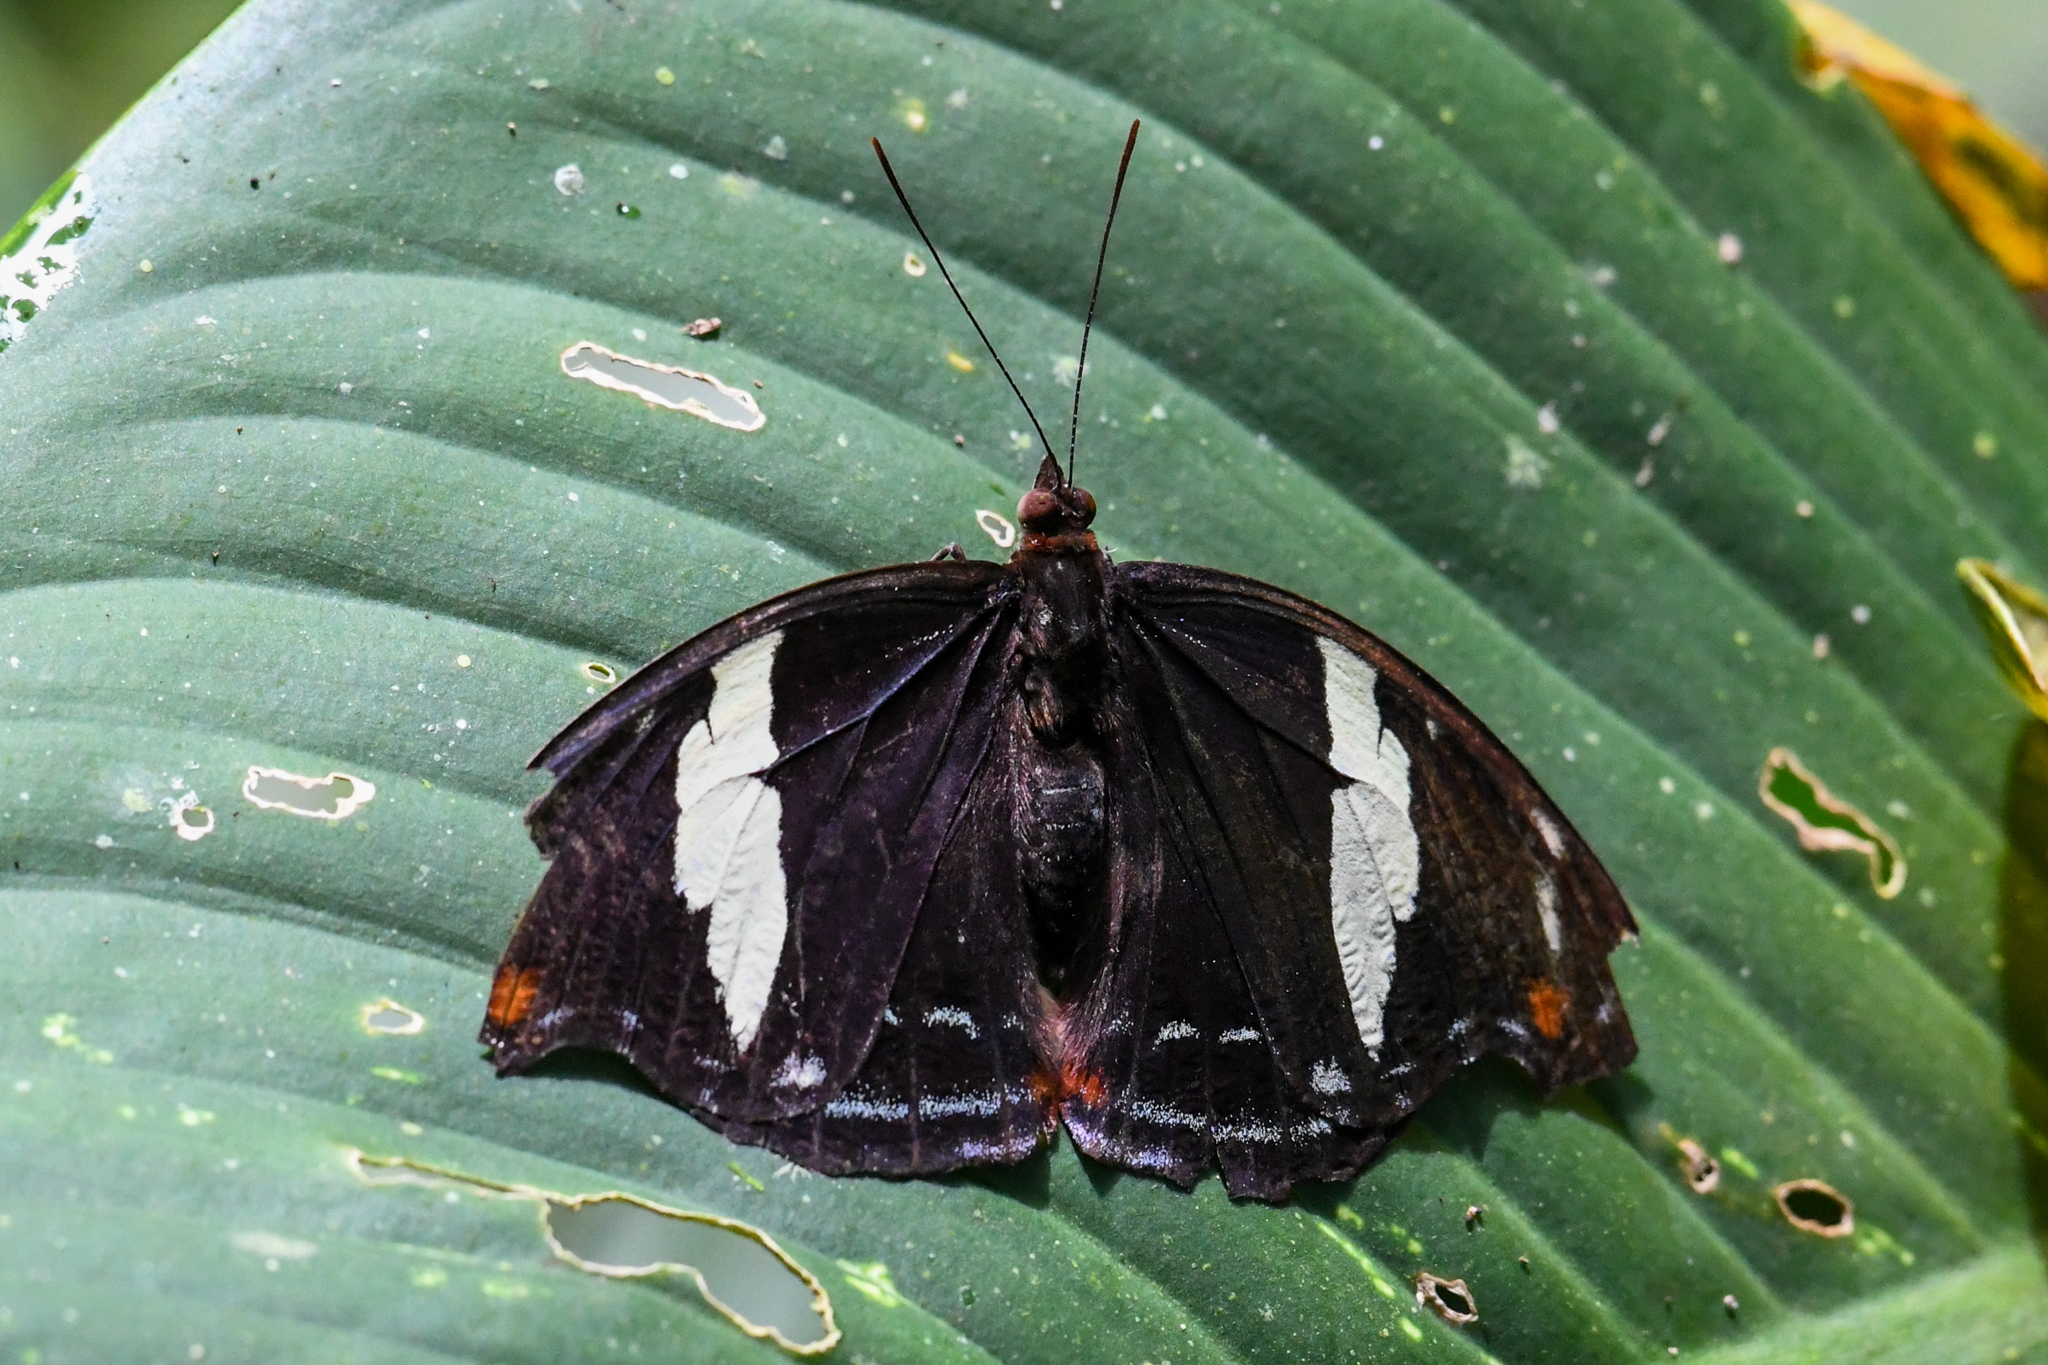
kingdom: Animalia
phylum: Arthropoda
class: Insecta
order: Lepidoptera
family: Nymphalidae
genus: Catonephele
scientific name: Catonephele numilia
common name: Blue-frosted banner
